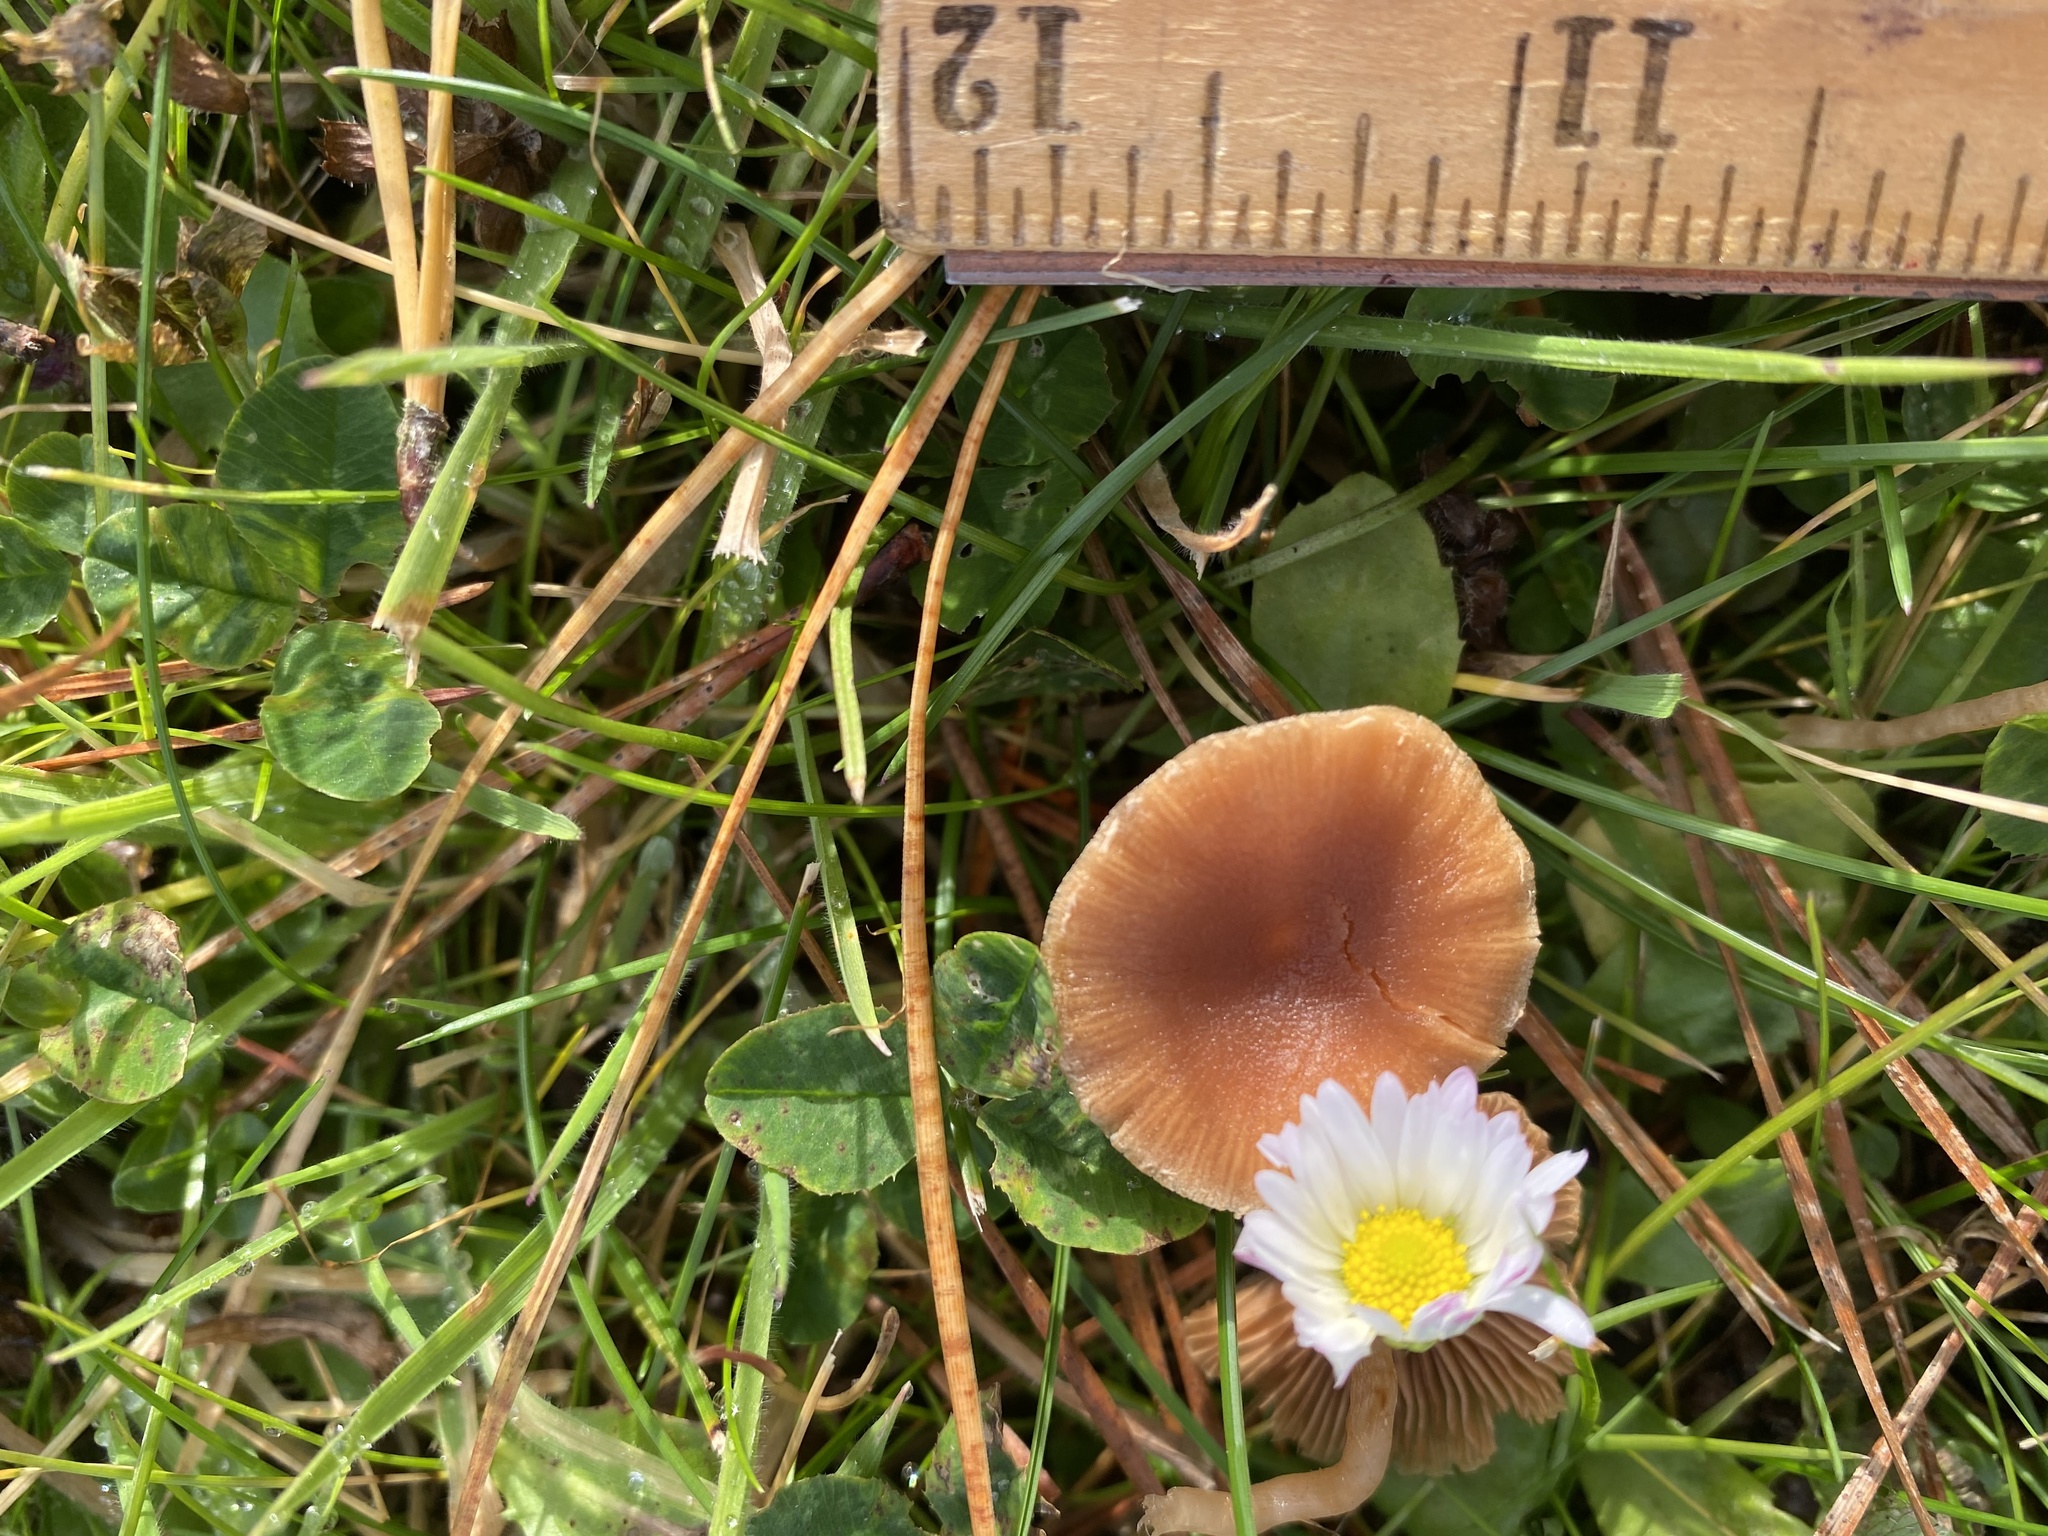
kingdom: Fungi
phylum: Basidiomycota
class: Agaricomycetes
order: Agaricales
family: Tubariaceae
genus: Tubaria
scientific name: Tubaria furfuracea
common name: Scurfy twiglet
